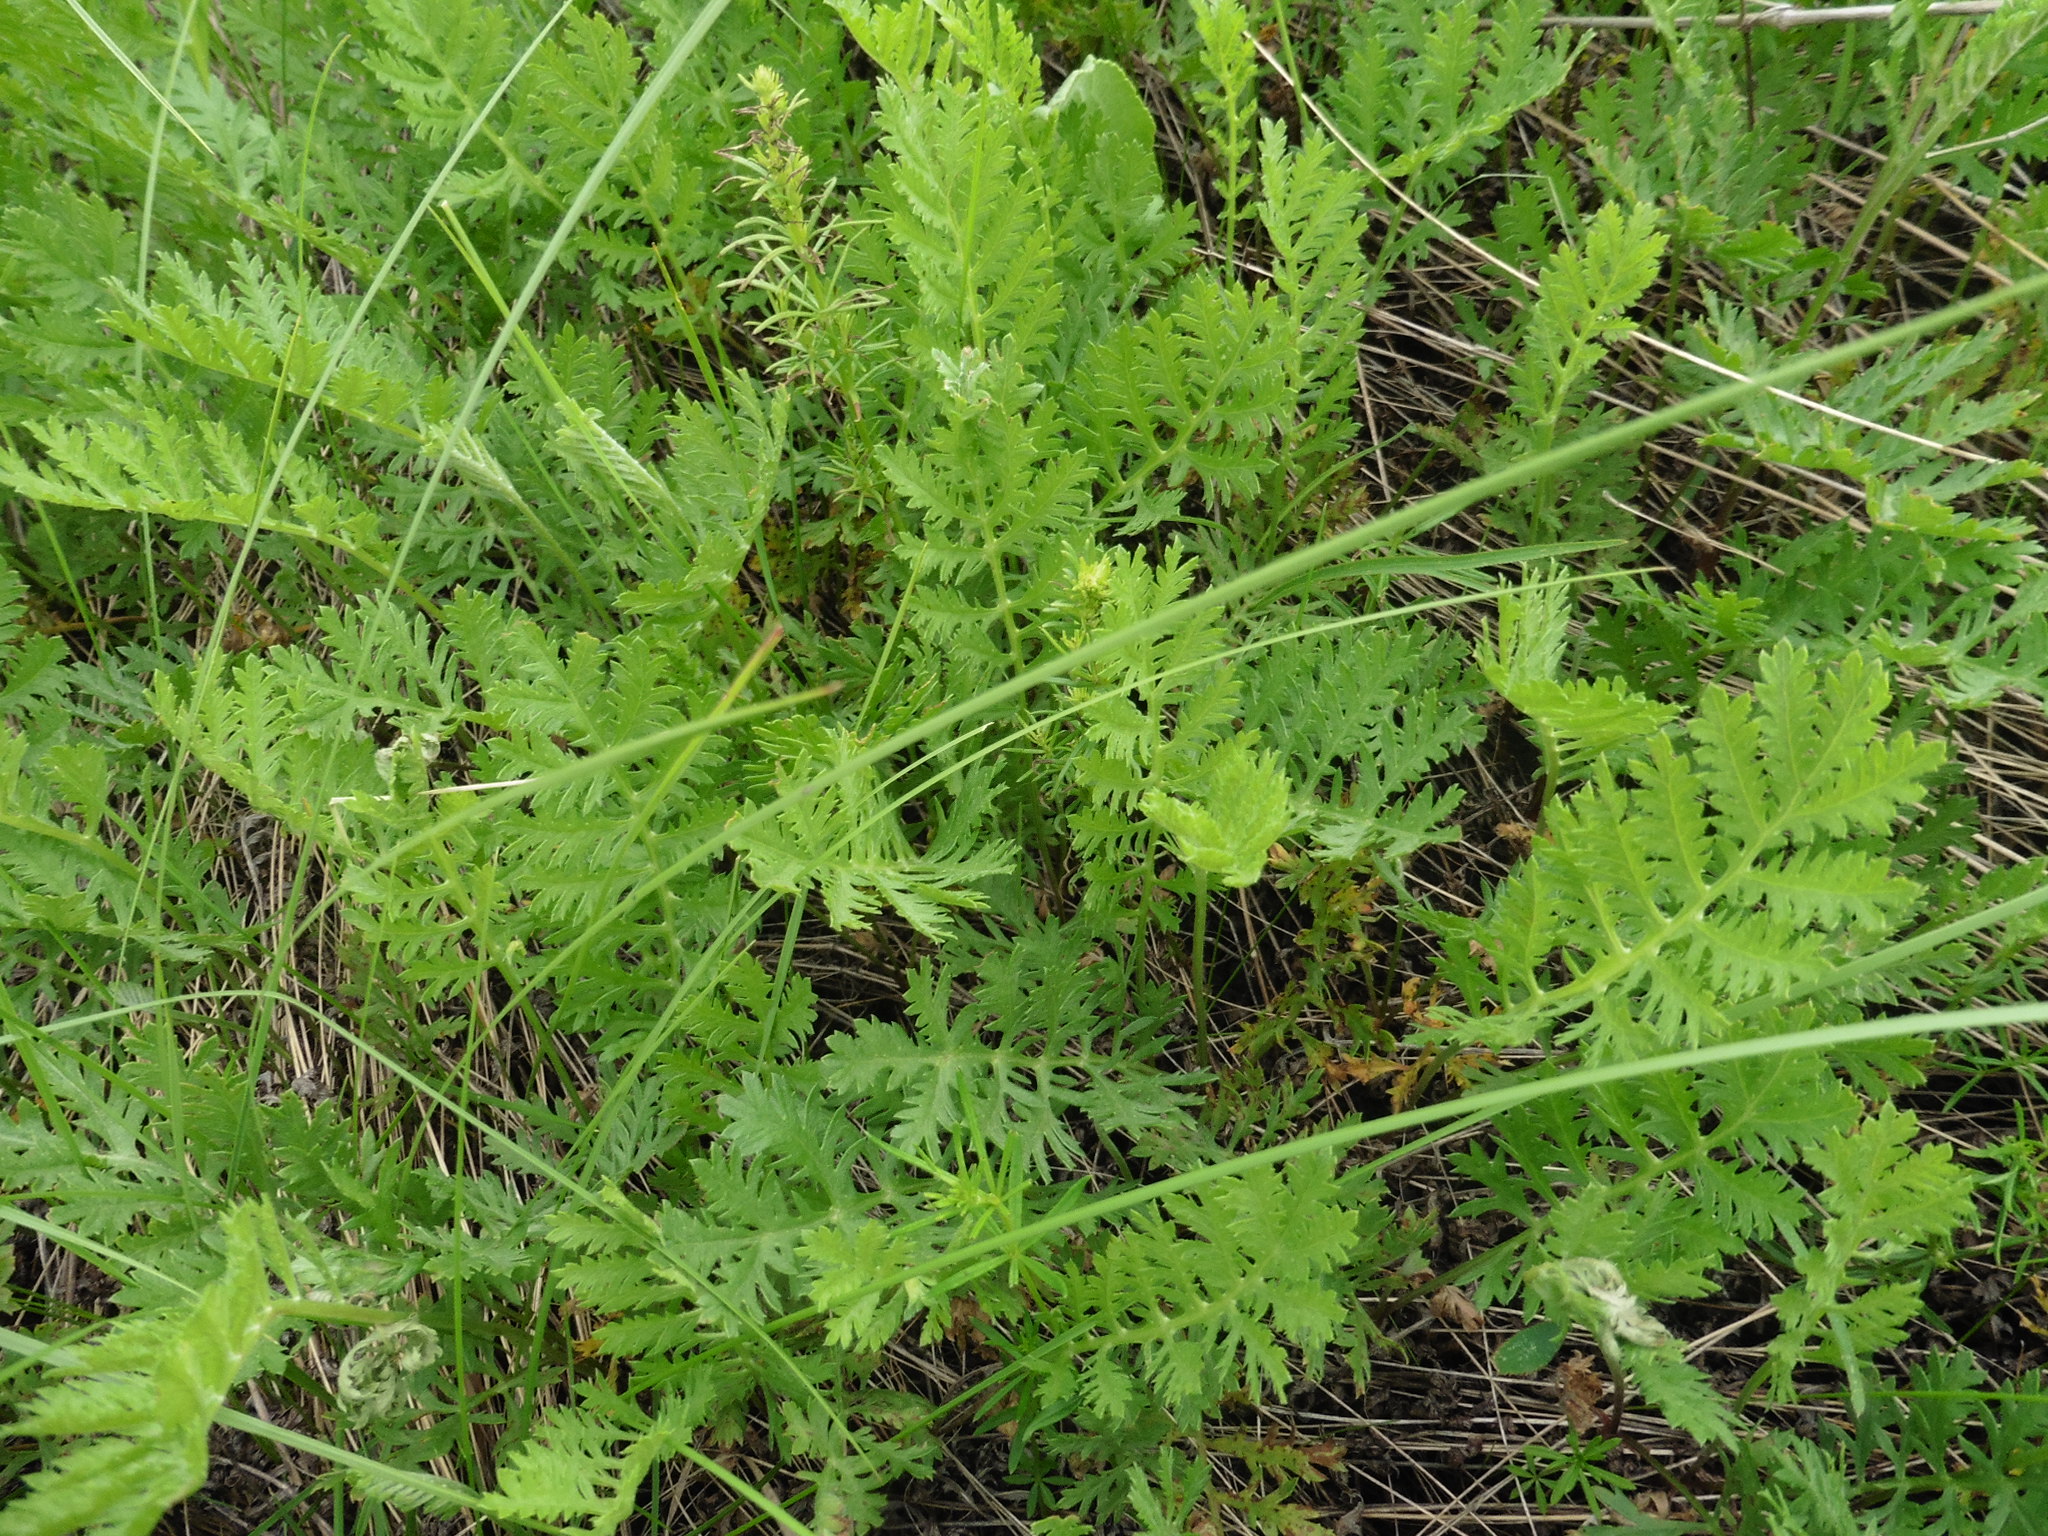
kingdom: Plantae
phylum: Tracheophyta
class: Magnoliopsida
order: Asterales
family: Asteraceae
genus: Artemisia
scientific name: Artemisia latifolia
